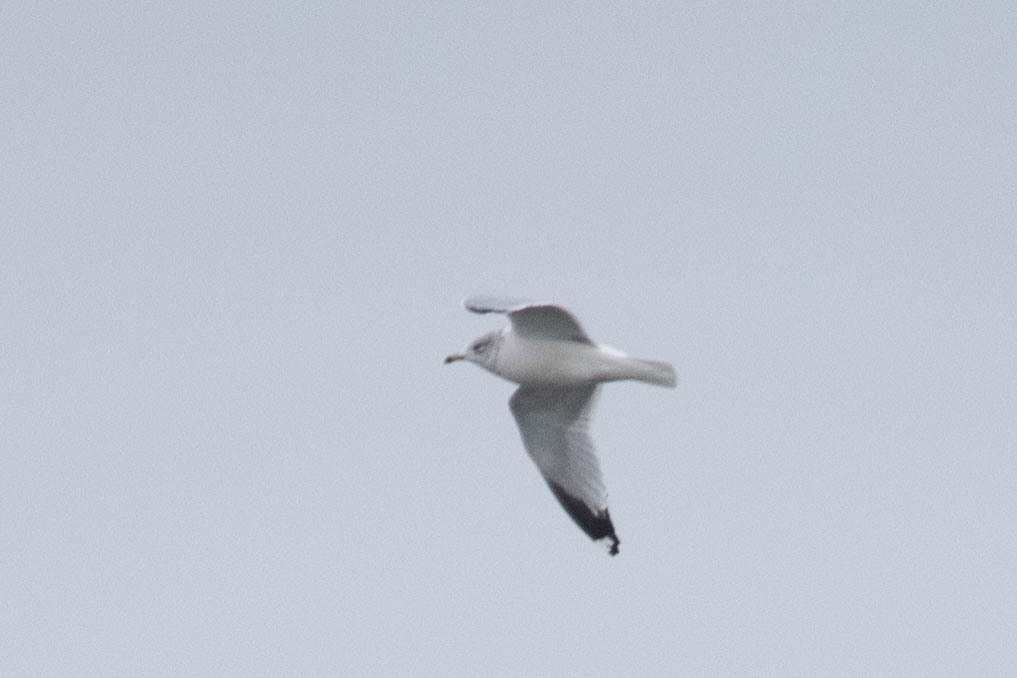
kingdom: Animalia
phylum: Chordata
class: Aves
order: Charadriiformes
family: Laridae
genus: Larus
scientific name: Larus delawarensis
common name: Ring-billed gull
